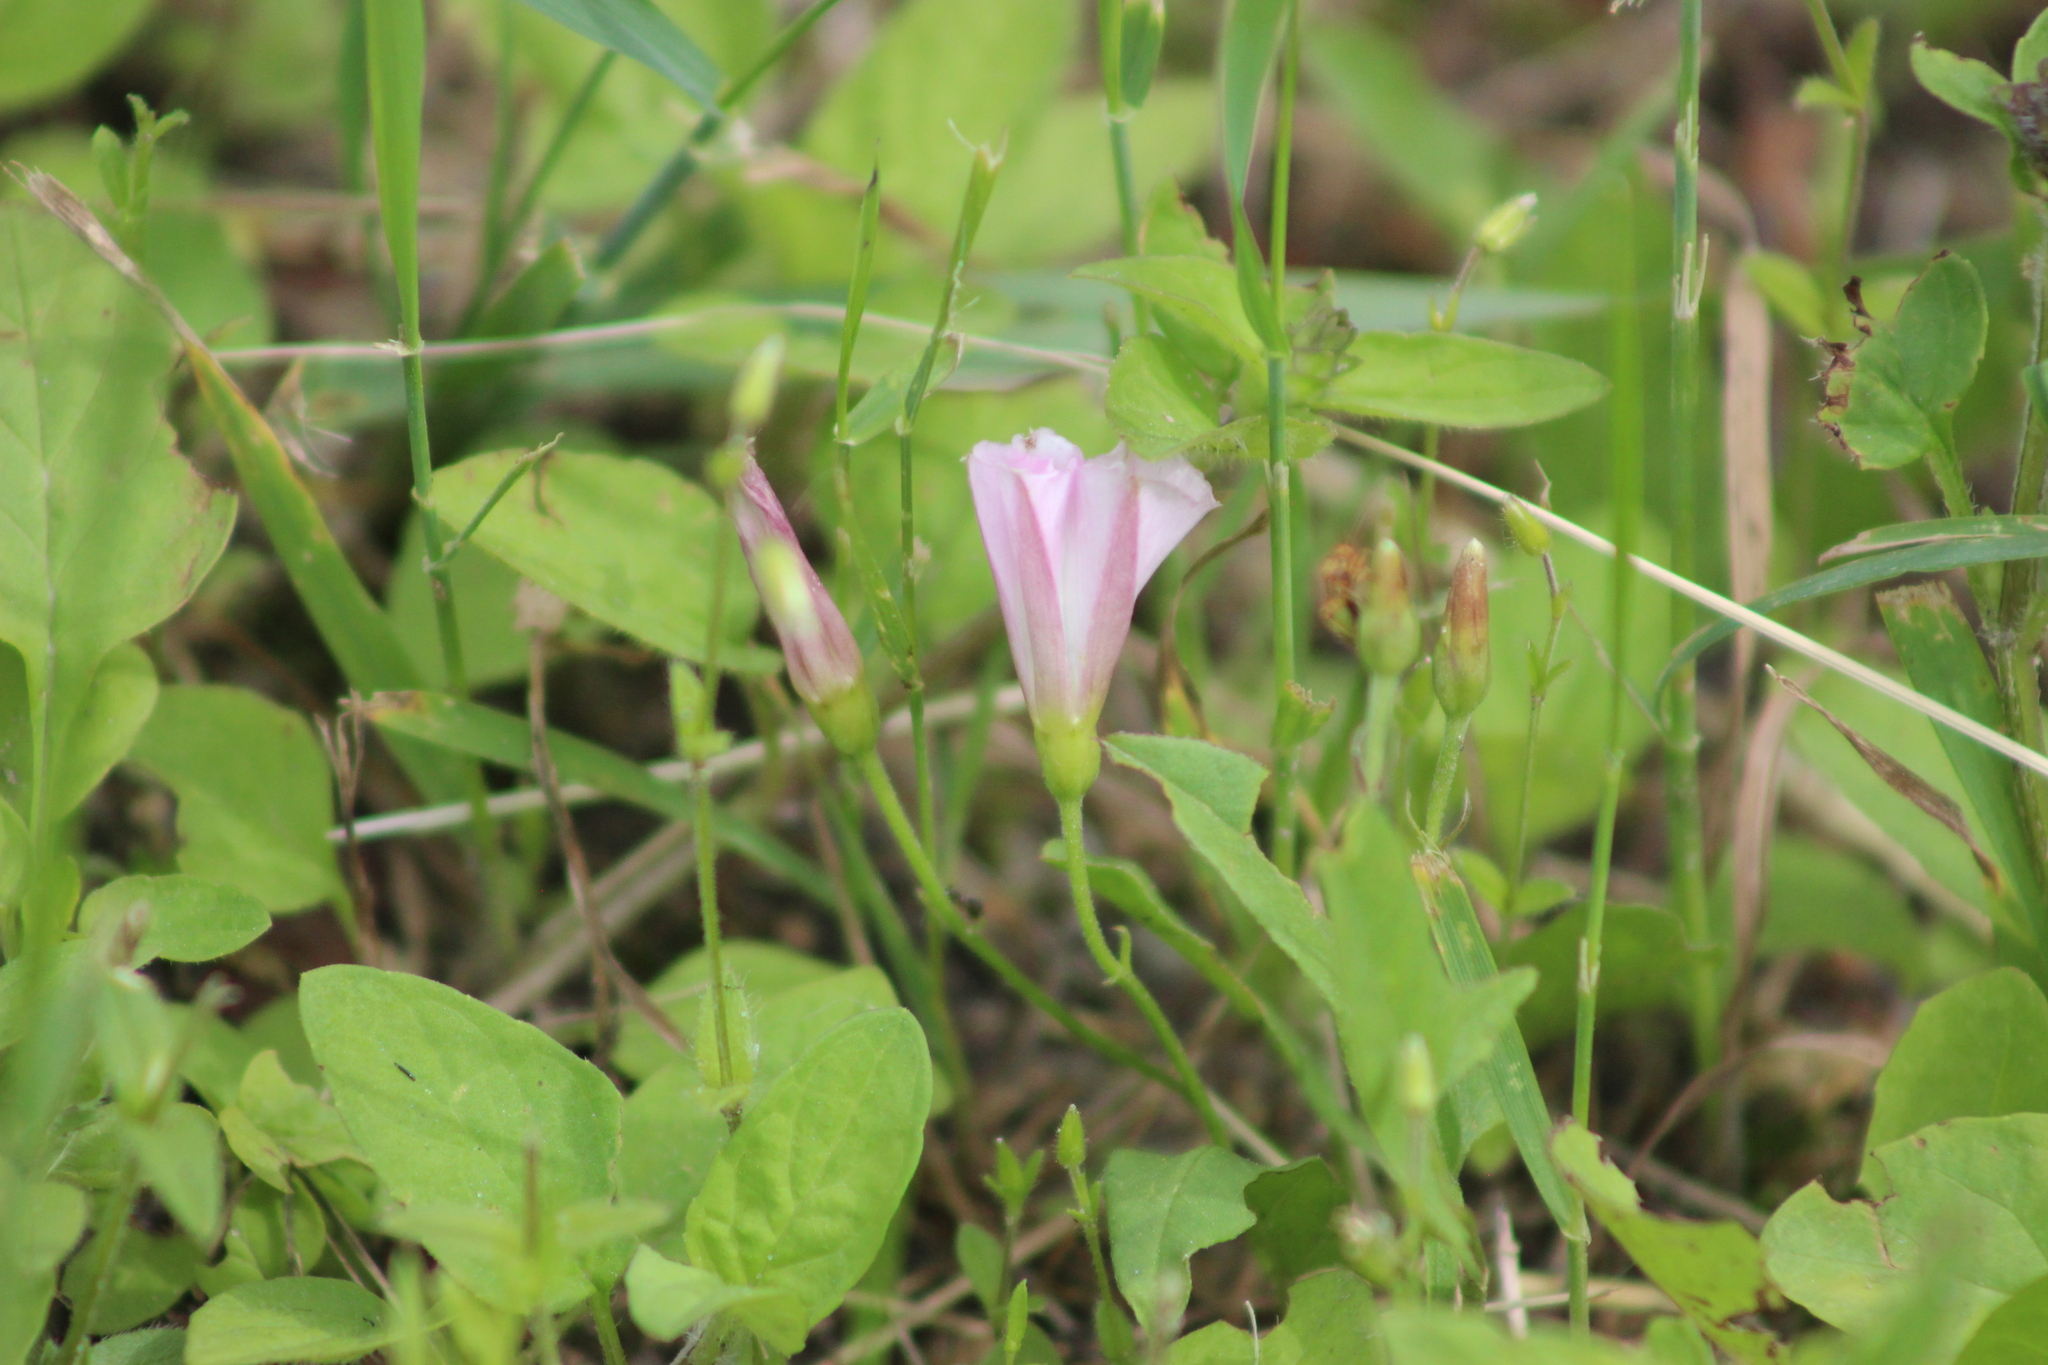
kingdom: Plantae
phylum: Tracheophyta
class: Magnoliopsida
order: Solanales
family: Convolvulaceae
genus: Convolvulus
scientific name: Convolvulus arvensis
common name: Field bindweed
